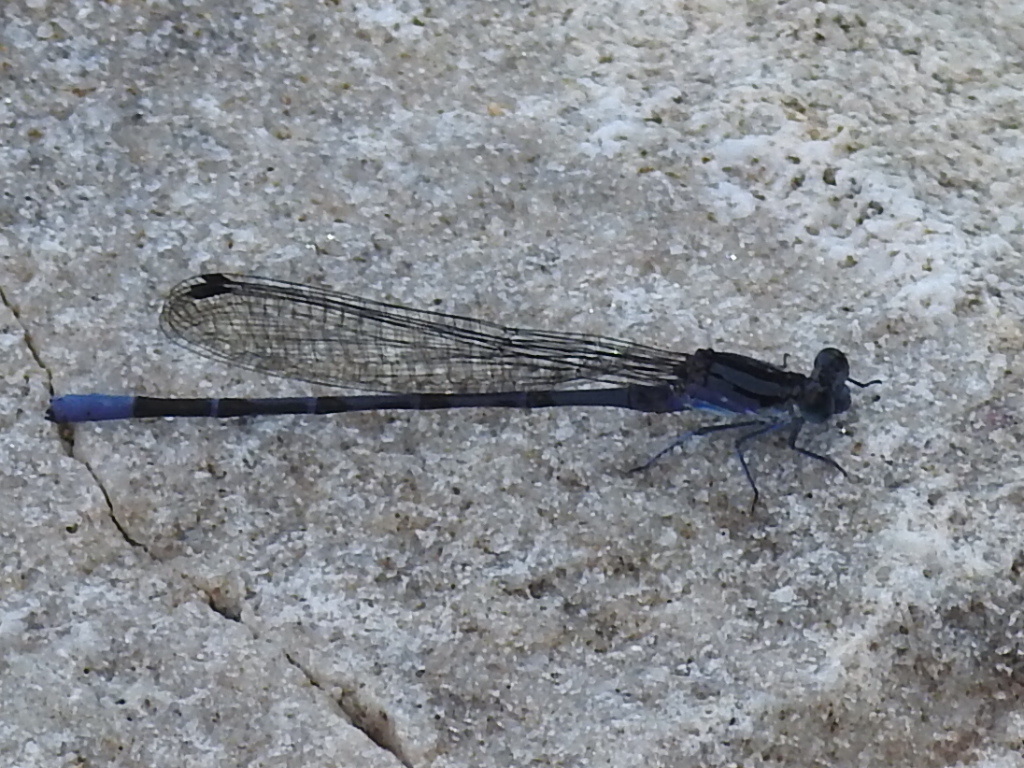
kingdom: Animalia
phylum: Arthropoda
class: Insecta
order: Odonata
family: Coenagrionidae
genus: Argia
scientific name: Argia funebris
